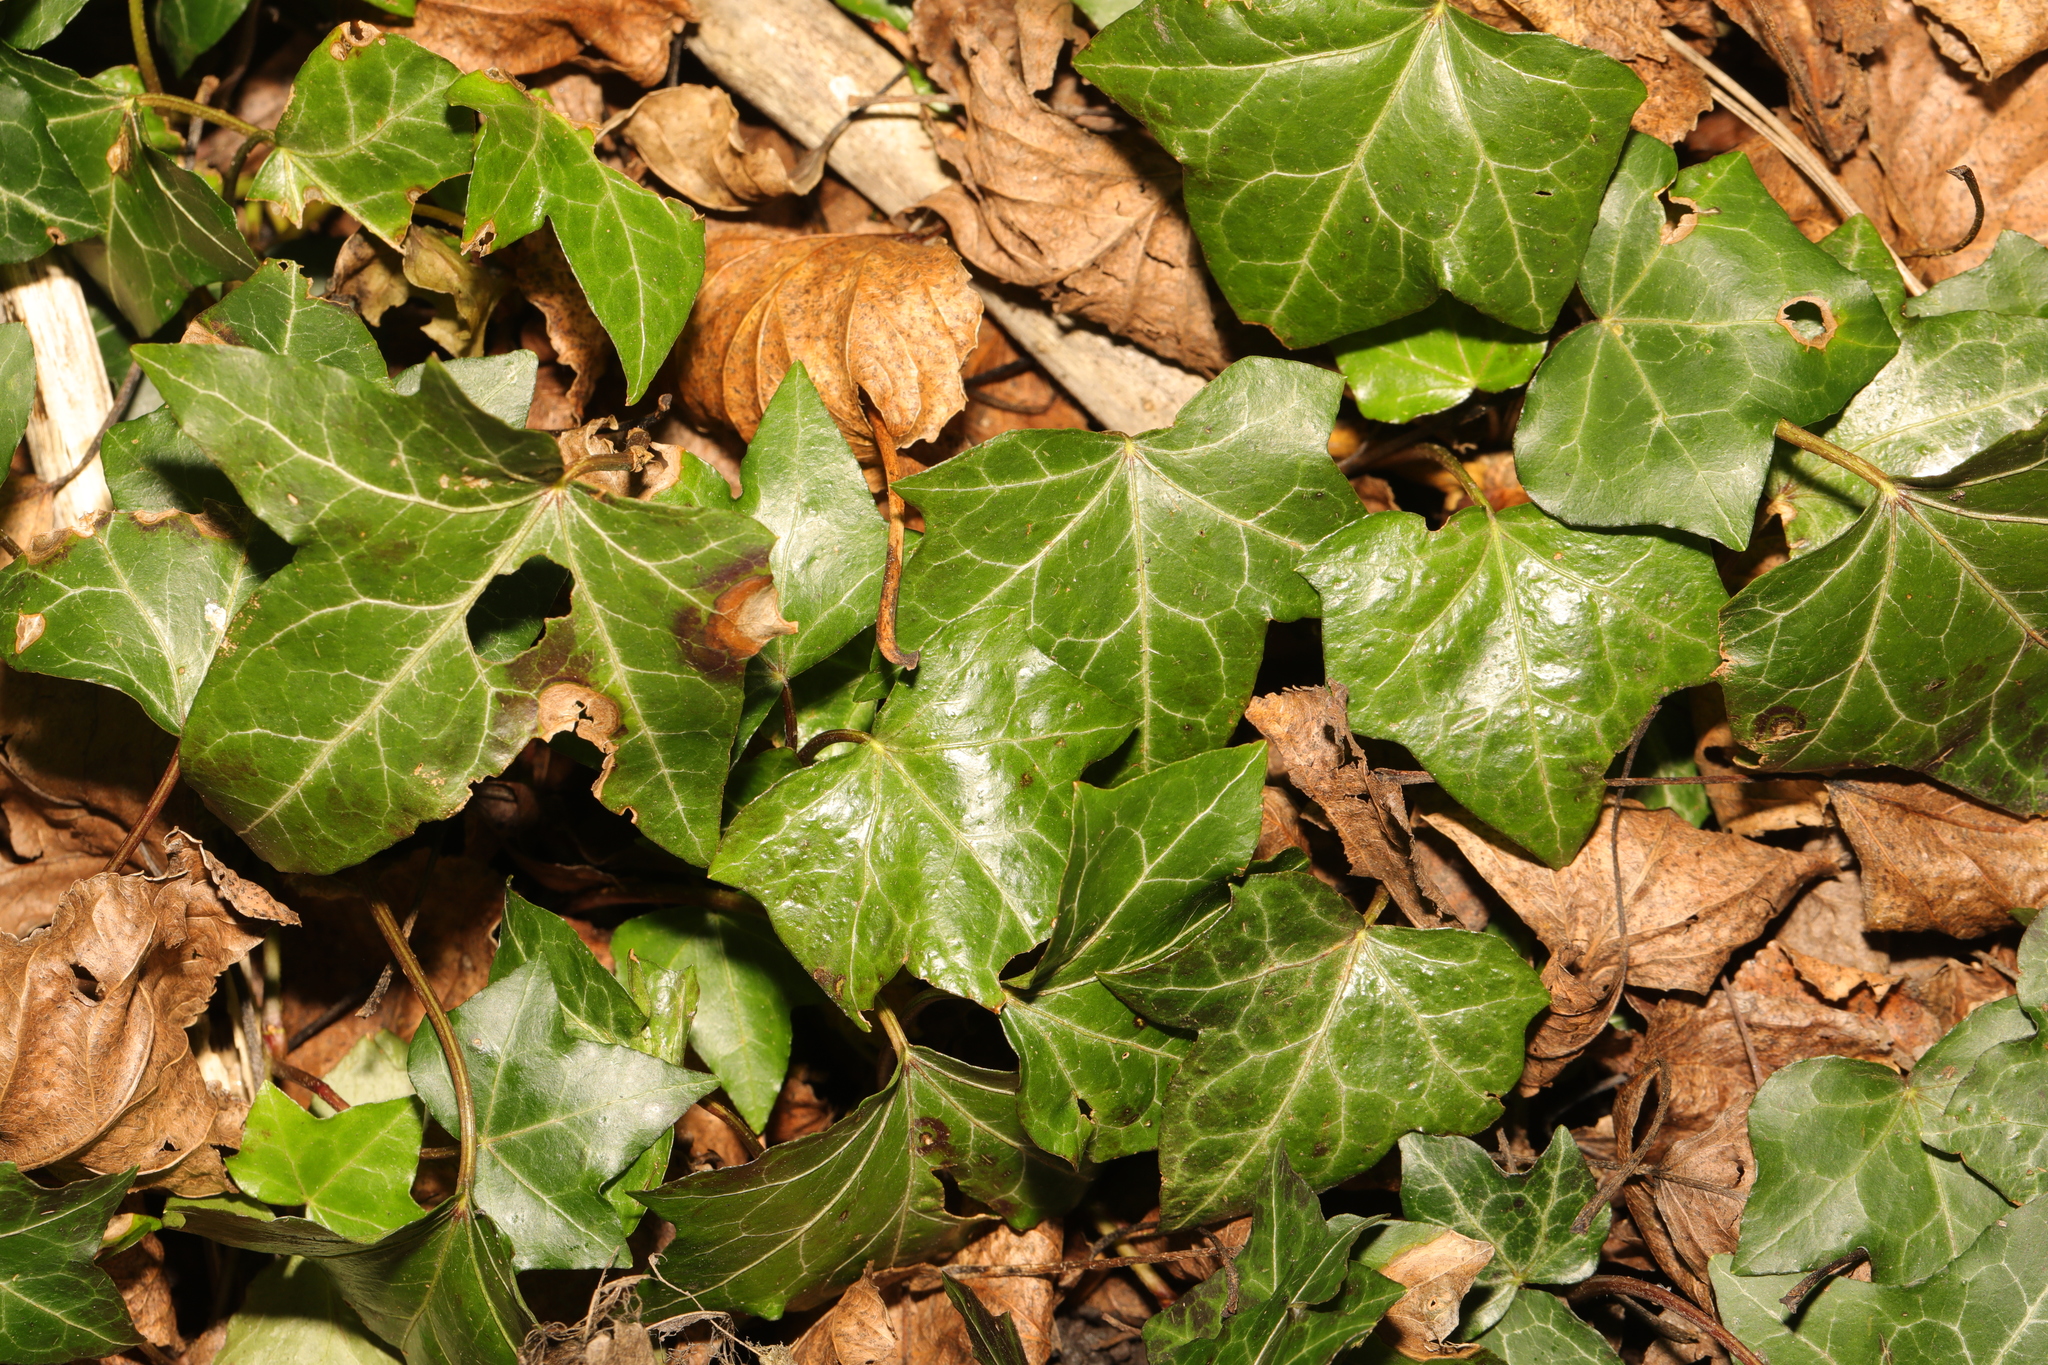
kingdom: Plantae
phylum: Tracheophyta
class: Magnoliopsida
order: Apiales
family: Araliaceae
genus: Hedera
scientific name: Hedera helix
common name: Ivy
